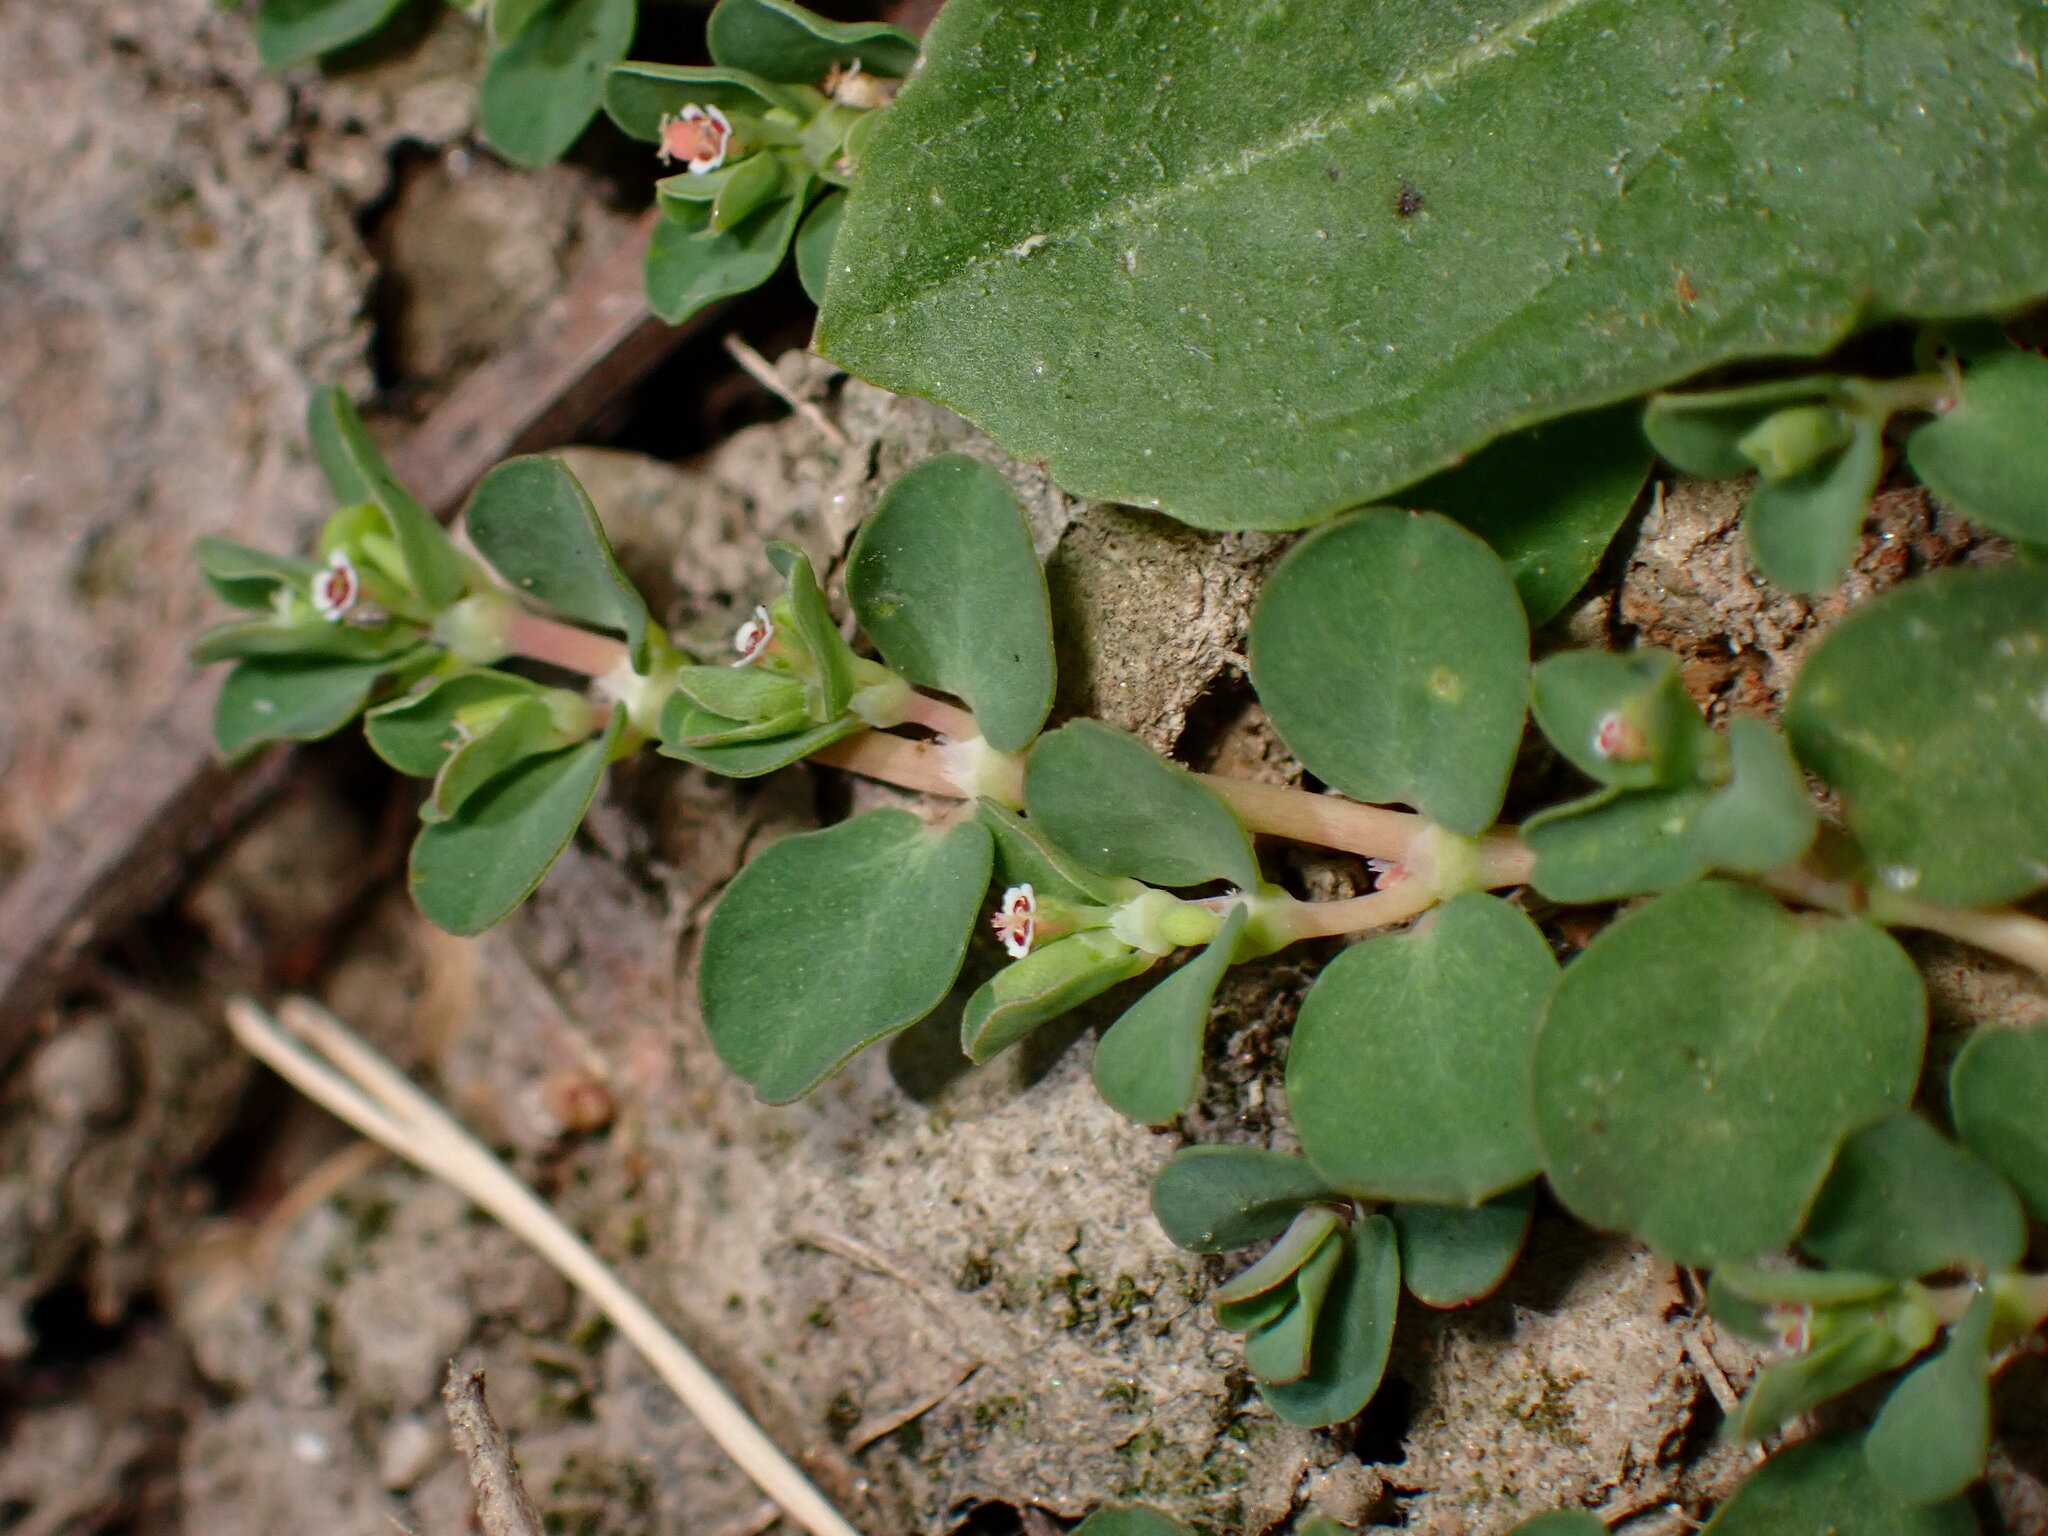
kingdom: Plantae
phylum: Tracheophyta
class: Magnoliopsida
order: Malpighiales
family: Euphorbiaceae
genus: Euphorbia
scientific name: Euphorbia serpens
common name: Matted sandmat
